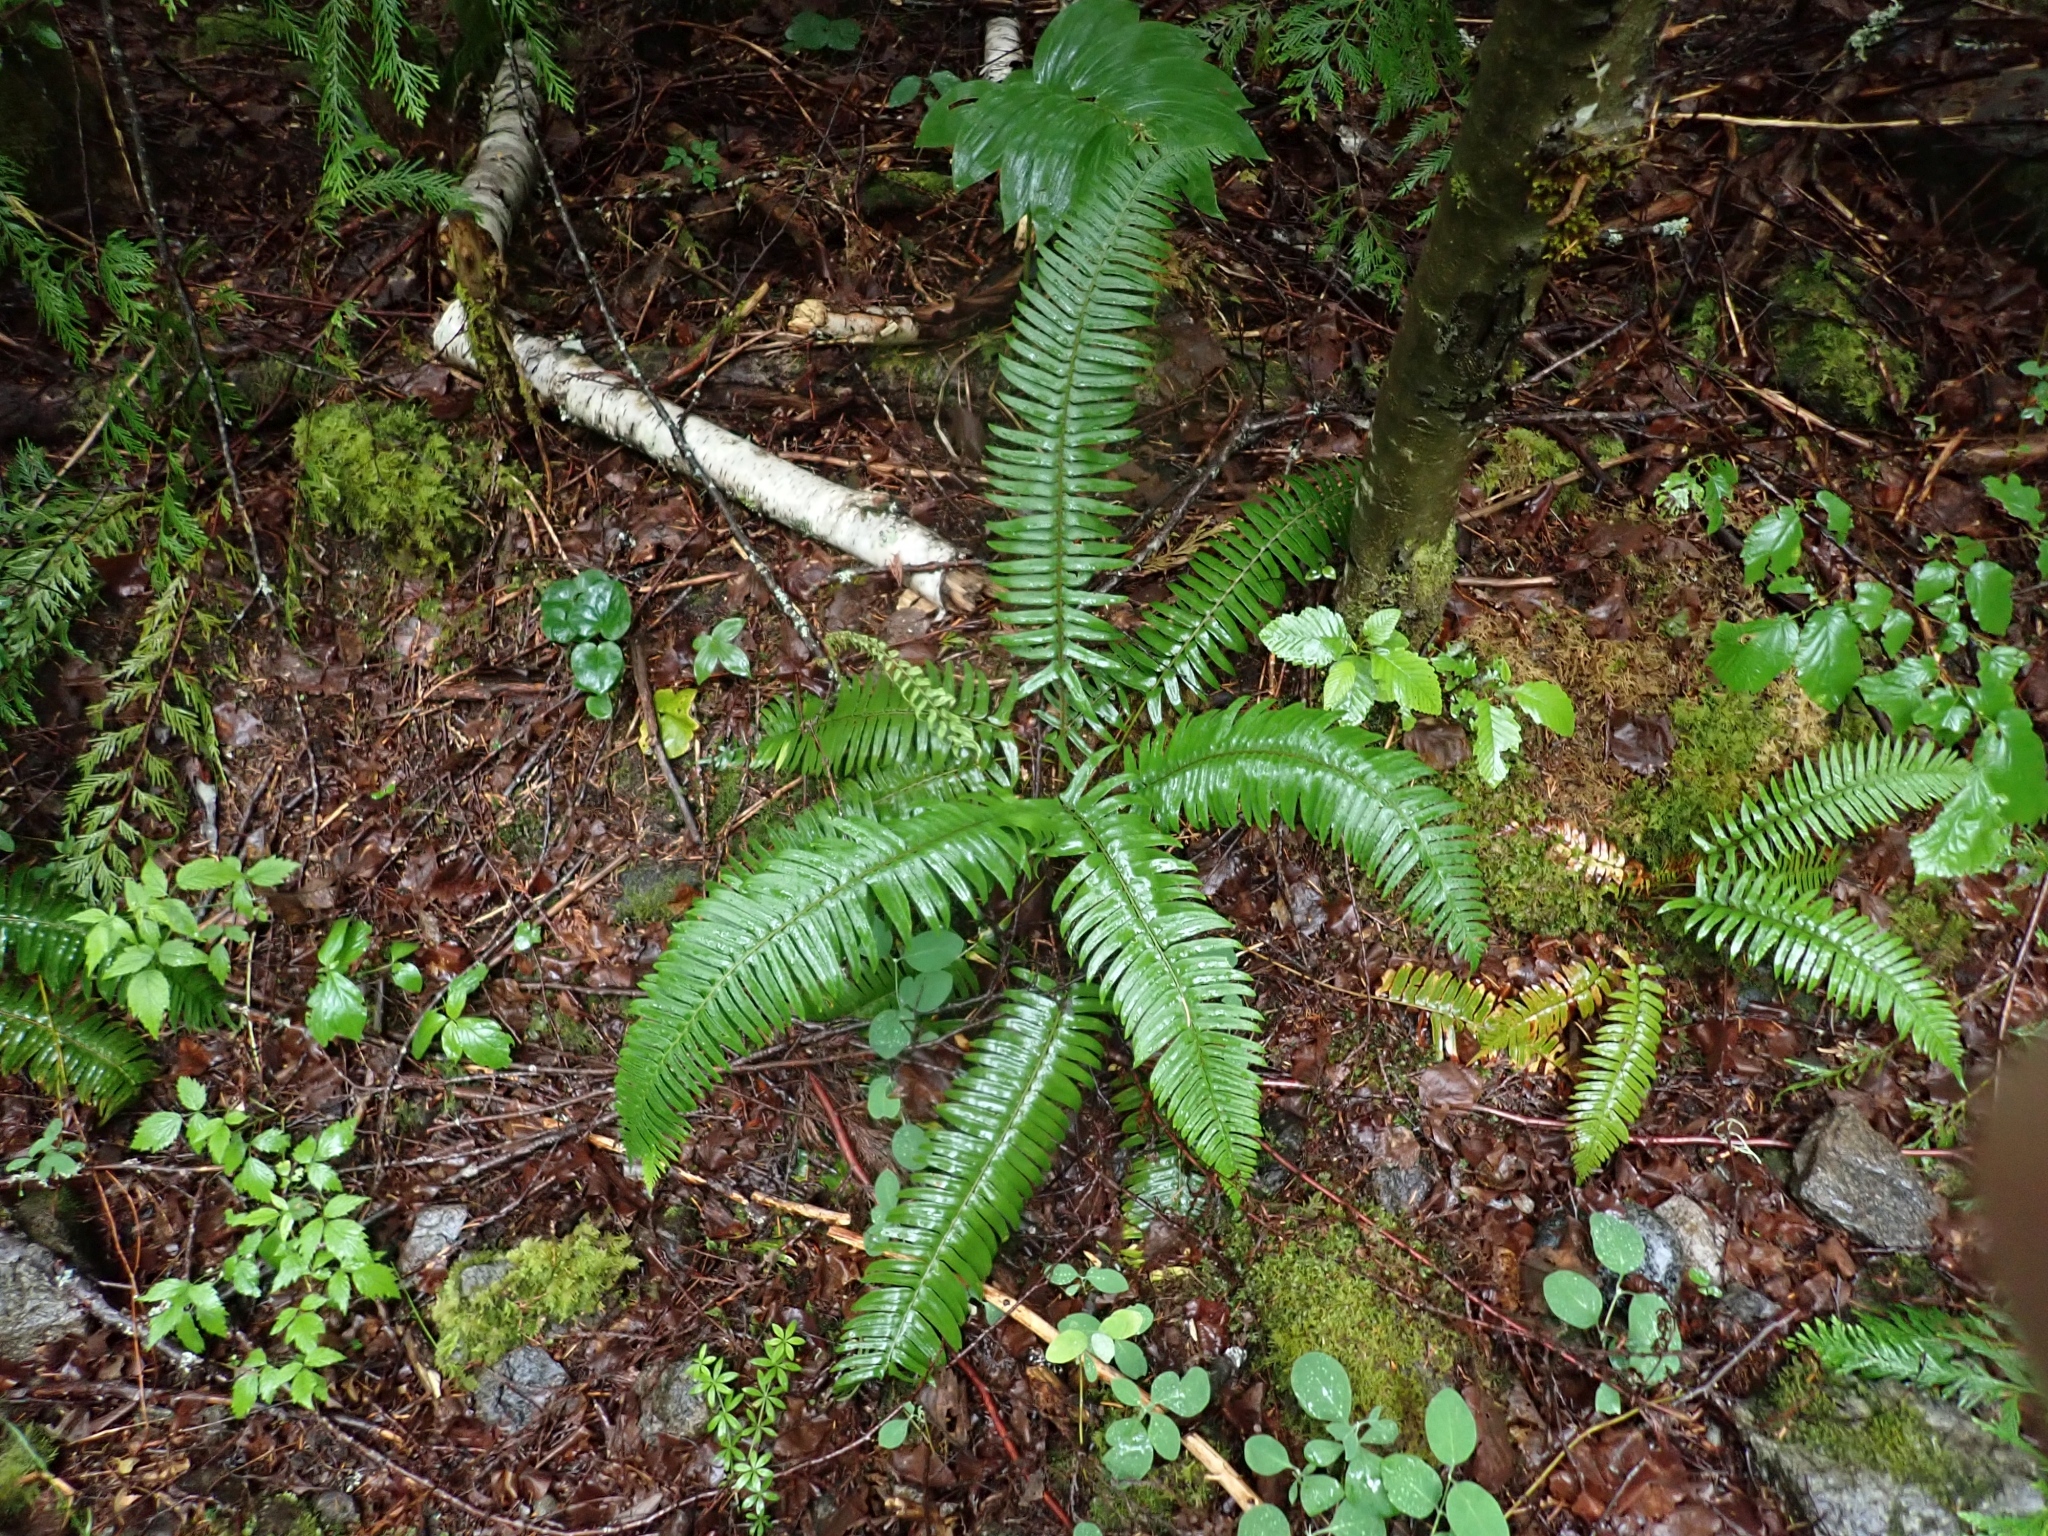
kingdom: Plantae
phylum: Tracheophyta
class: Polypodiopsida
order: Polypodiales
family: Dryopteridaceae
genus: Polystichum
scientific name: Polystichum munitum
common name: Western sword-fern
